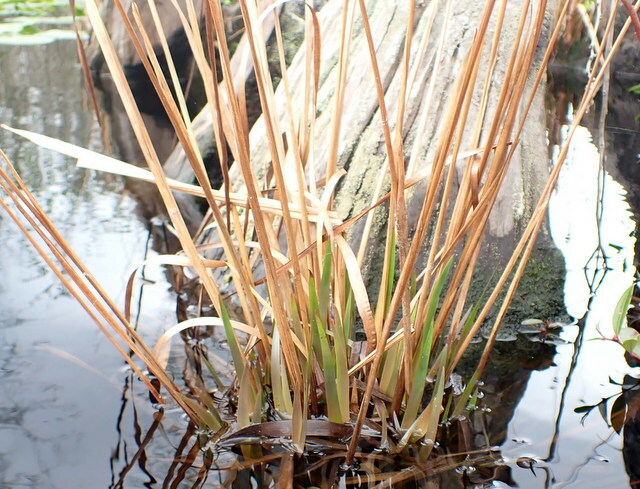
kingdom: Plantae
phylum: Tracheophyta
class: Liliopsida
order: Poales
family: Xyridaceae
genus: Xyris
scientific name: Xyris fimbriata
